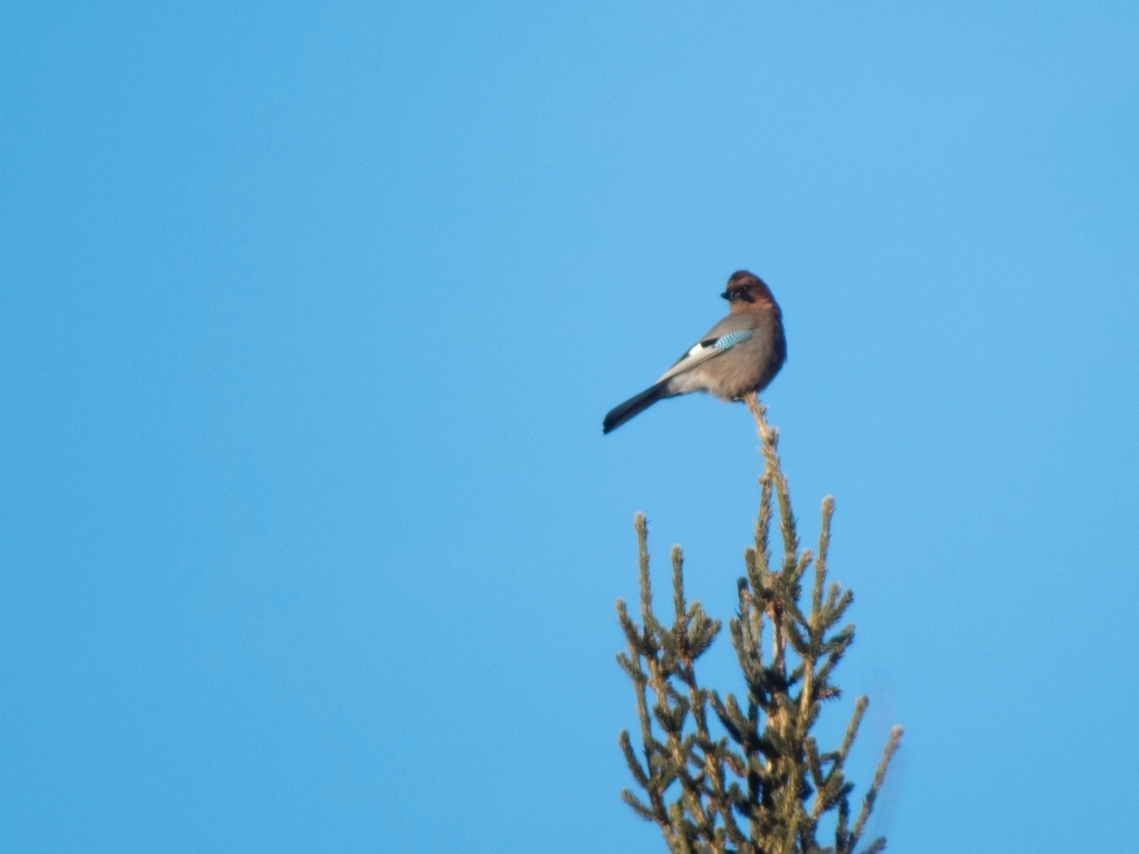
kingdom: Animalia
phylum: Chordata
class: Aves
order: Passeriformes
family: Corvidae
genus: Garrulus
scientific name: Garrulus glandarius
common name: Eurasian jay
